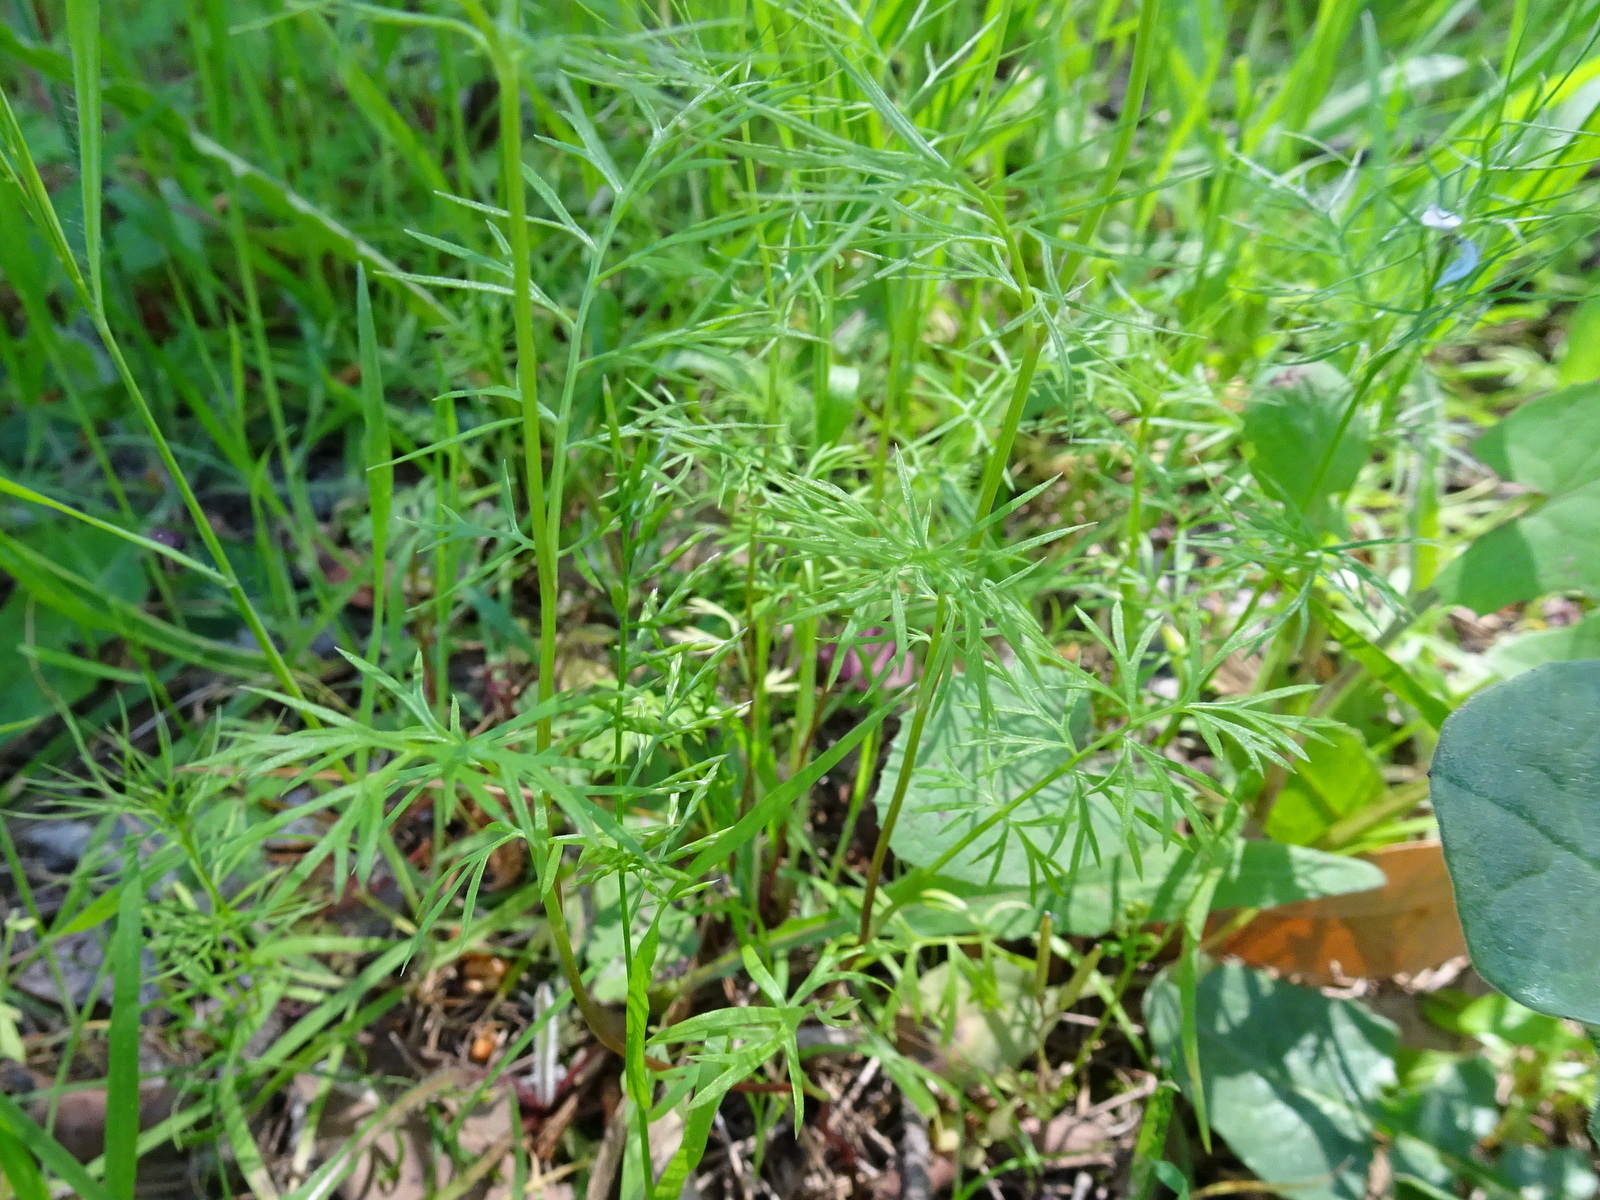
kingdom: Plantae
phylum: Tracheophyta
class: Magnoliopsida
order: Ranunculales
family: Ranunculaceae
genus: Nigella
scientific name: Nigella damascena
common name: Love-in-a-mist
